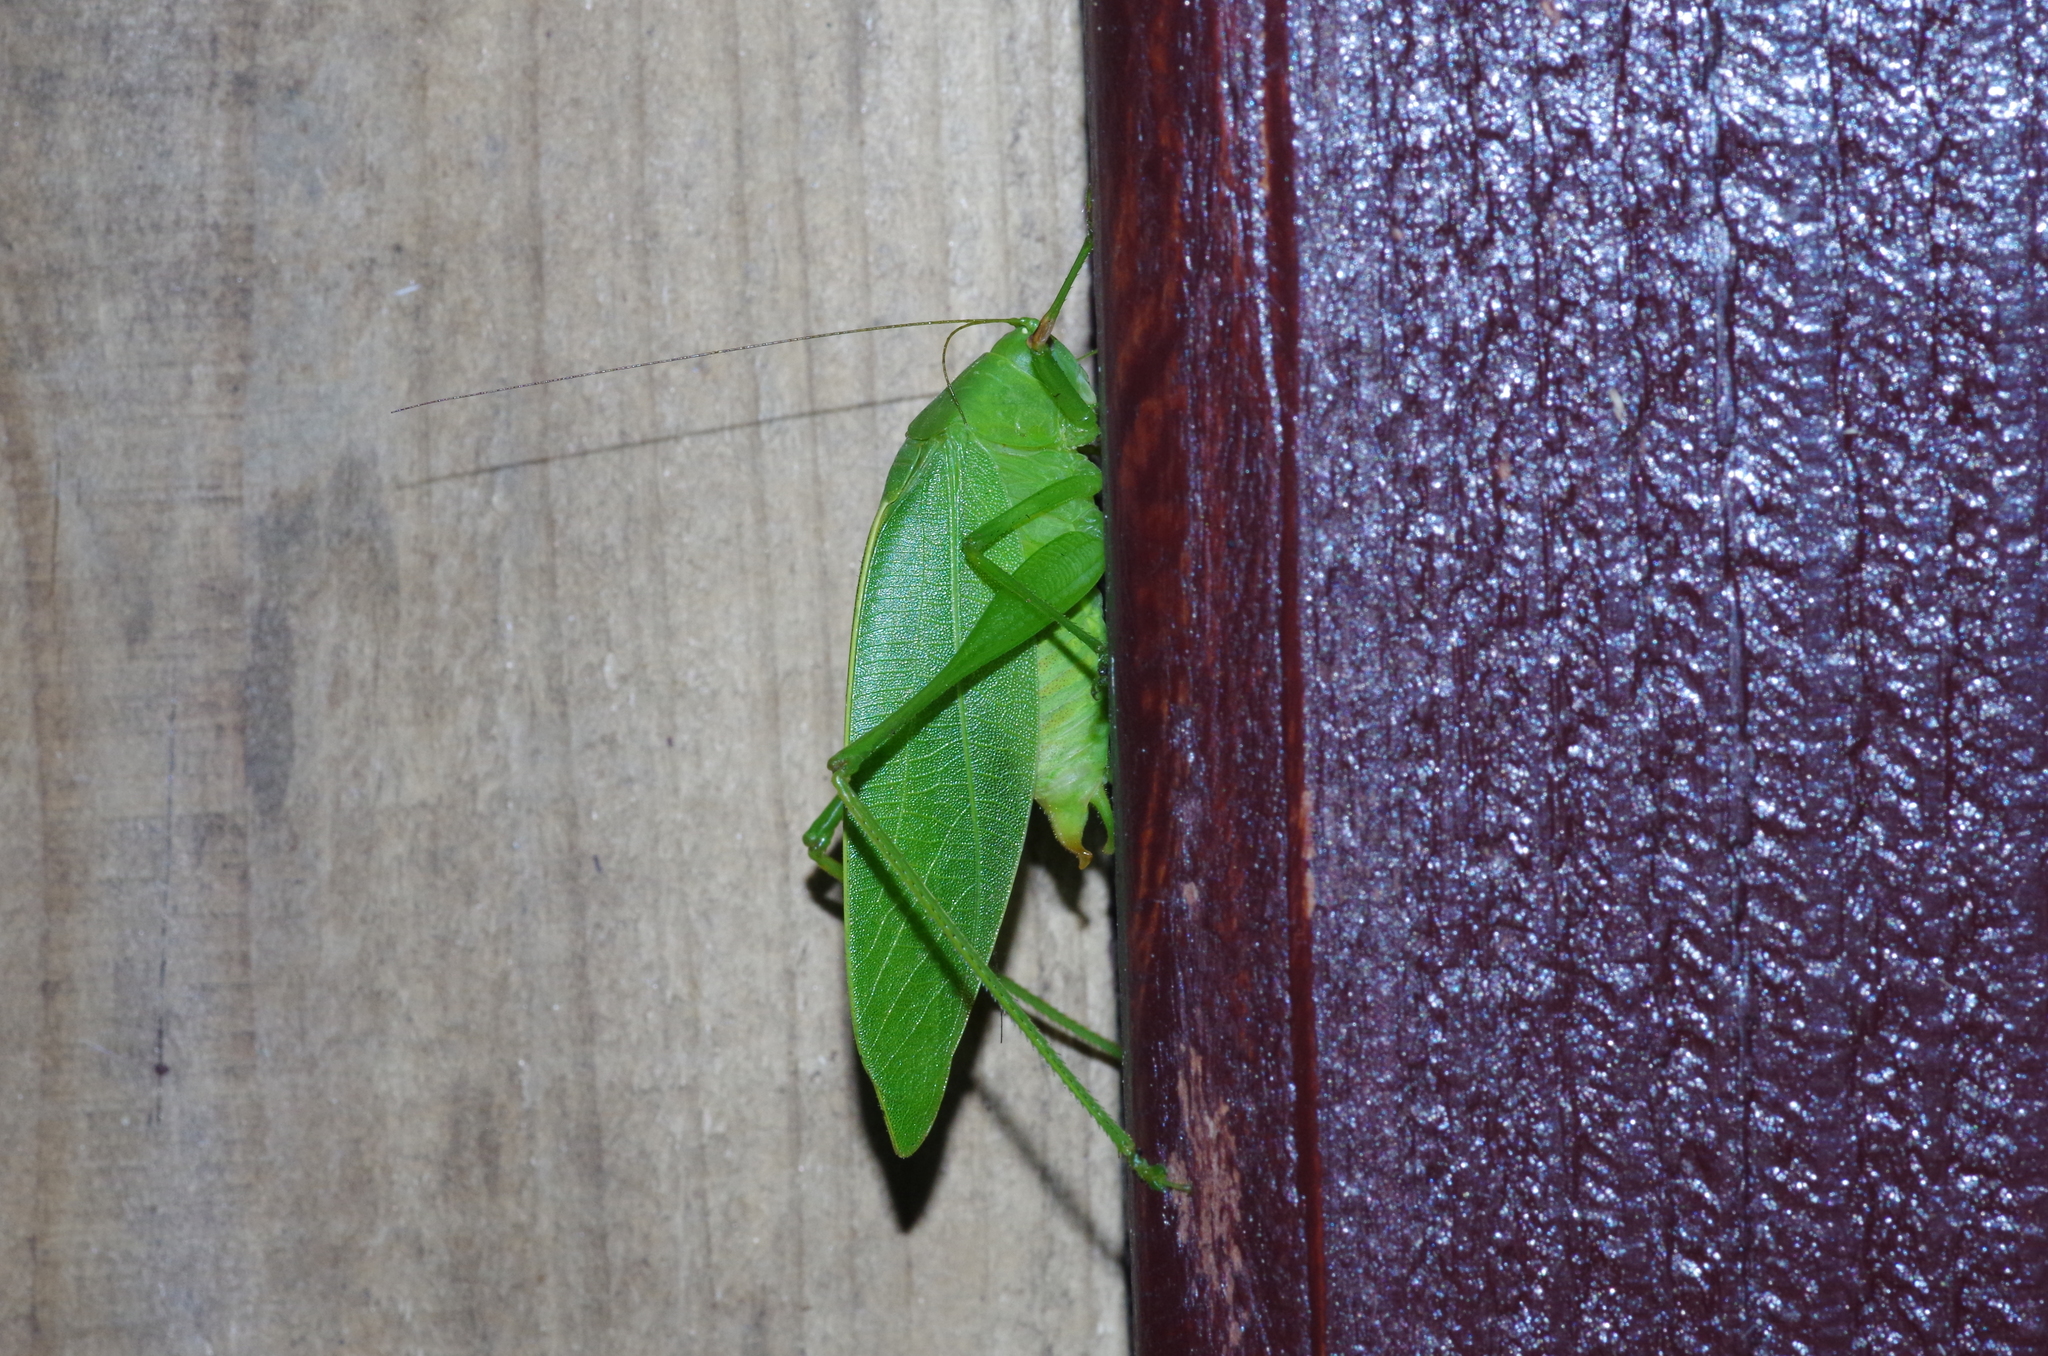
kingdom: Animalia
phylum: Arthropoda
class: Insecta
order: Orthoptera
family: Tettigoniidae
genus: Phaulula
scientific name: Phaulula daitoensis
